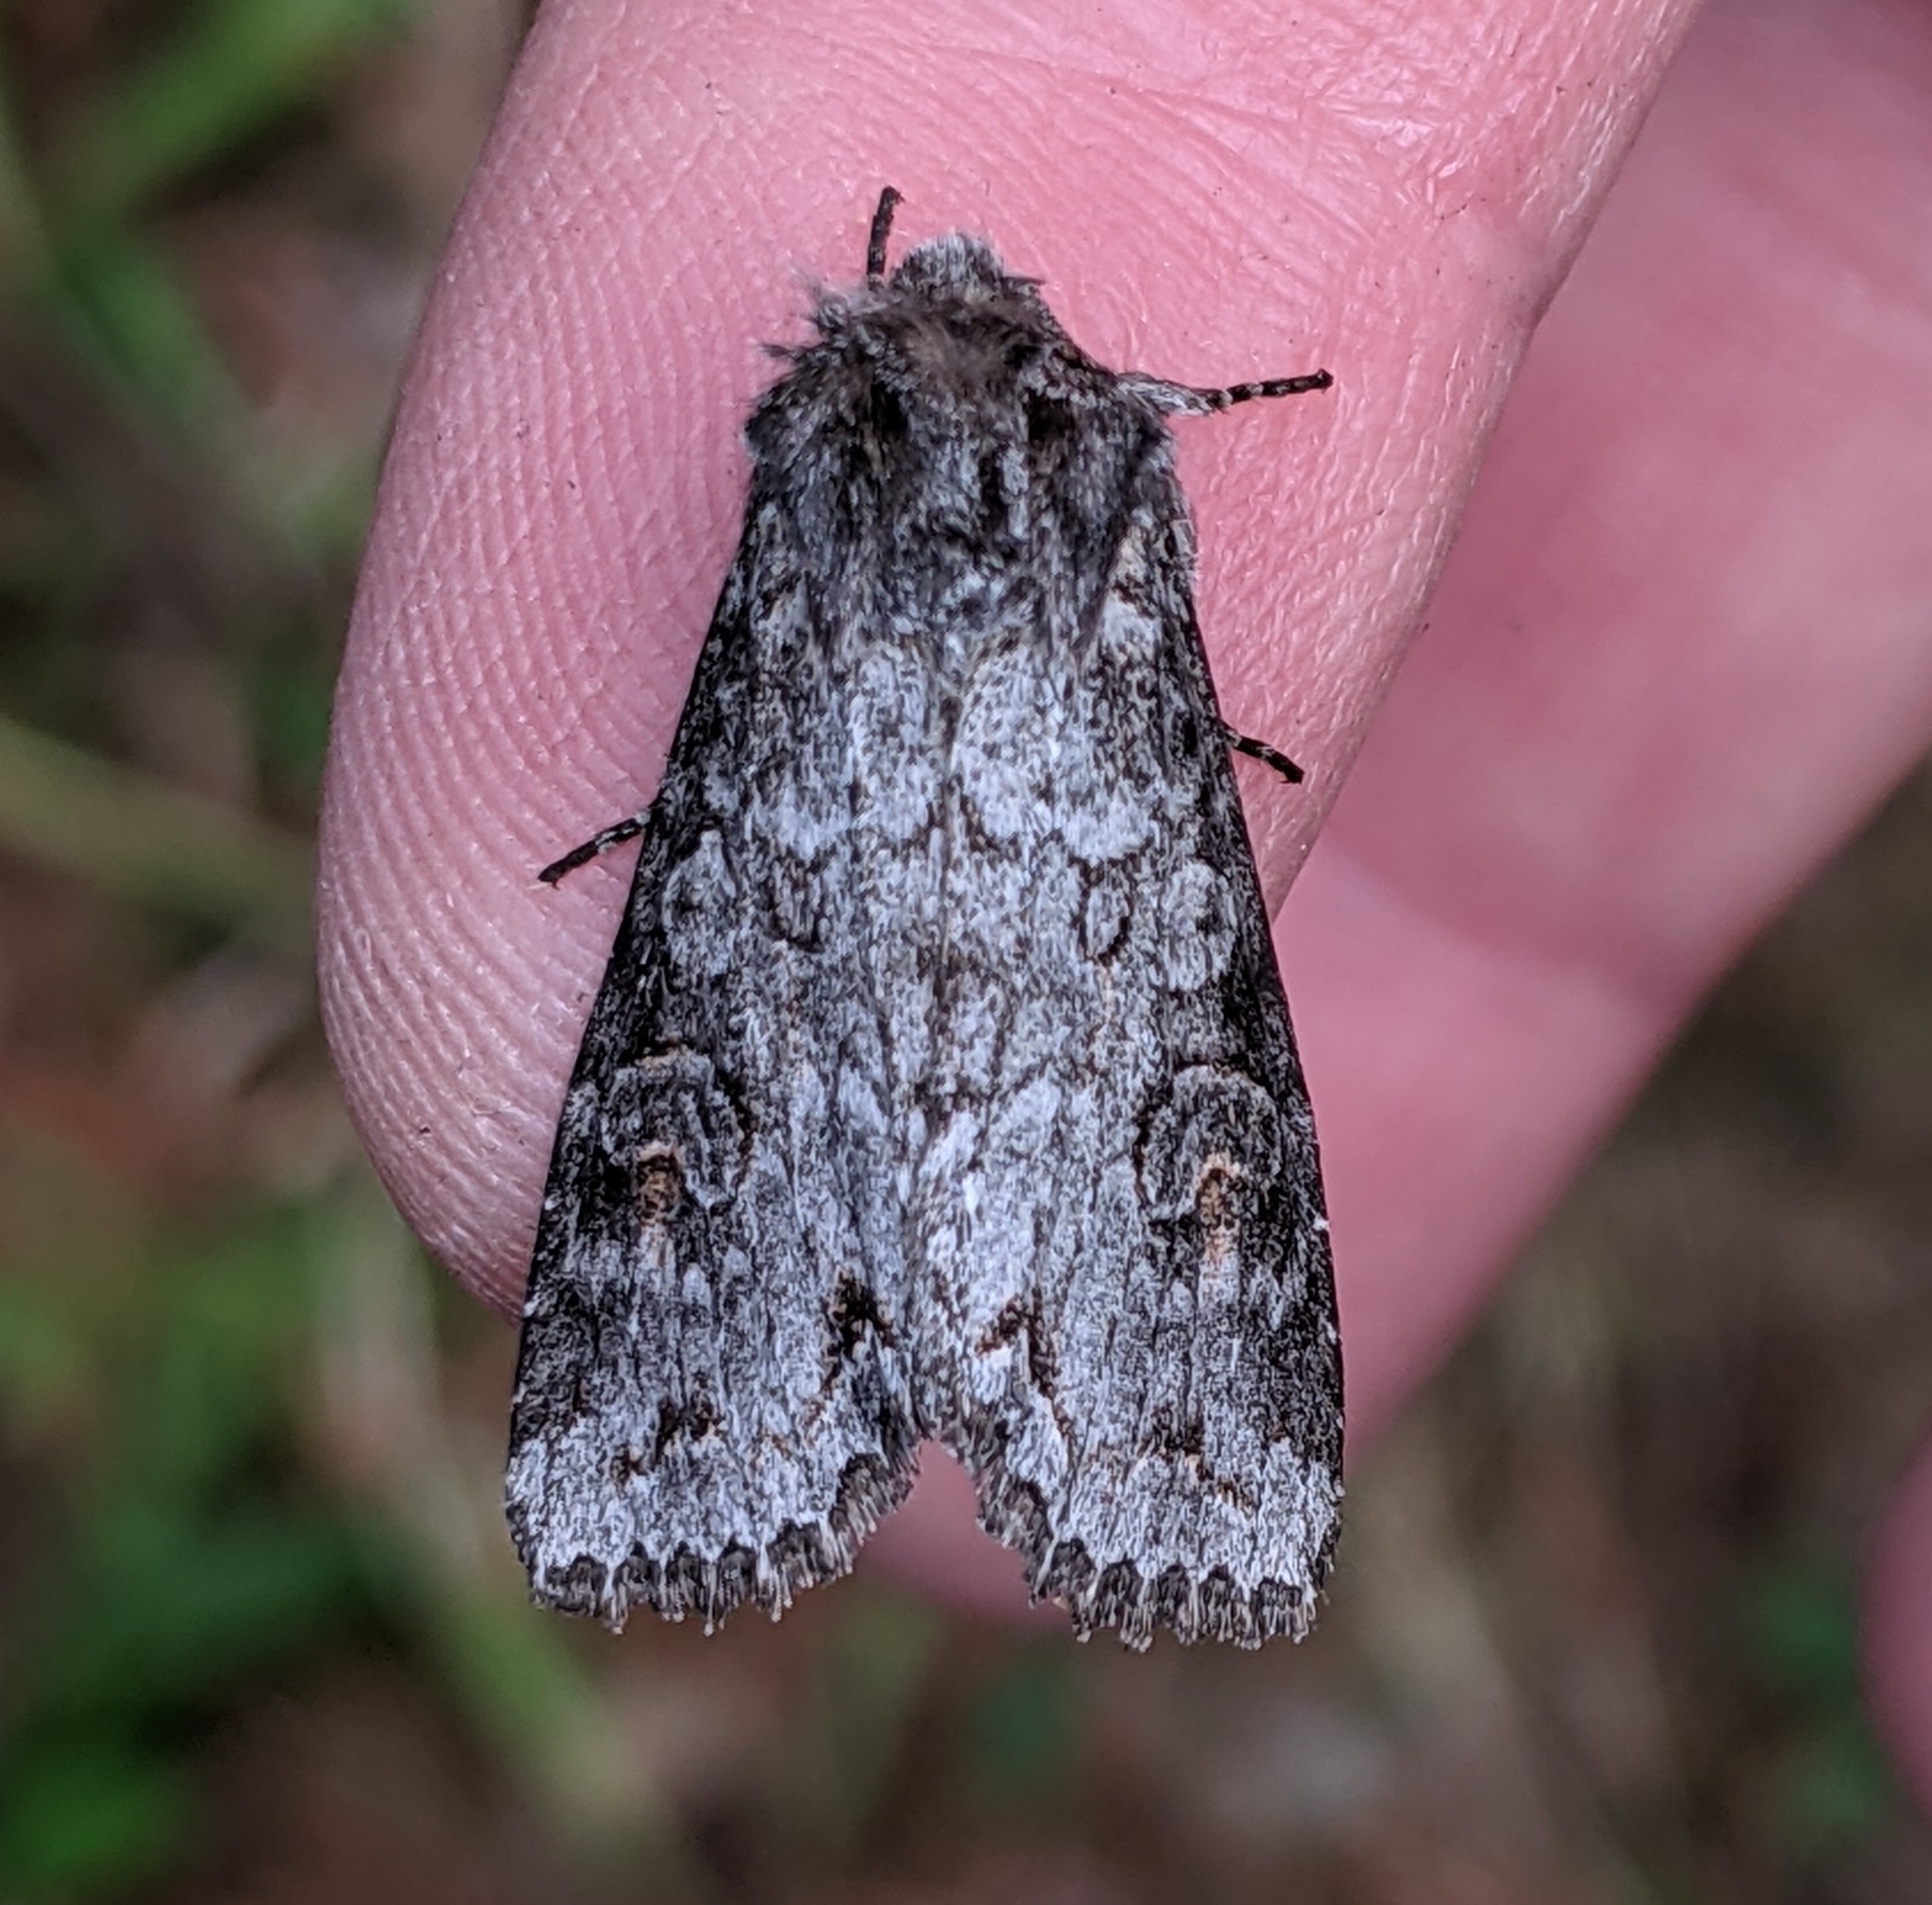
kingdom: Animalia
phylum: Arthropoda
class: Insecta
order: Lepidoptera
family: Noctuidae
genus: Polia
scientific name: Polia purpurissata
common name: Purple arches moth
